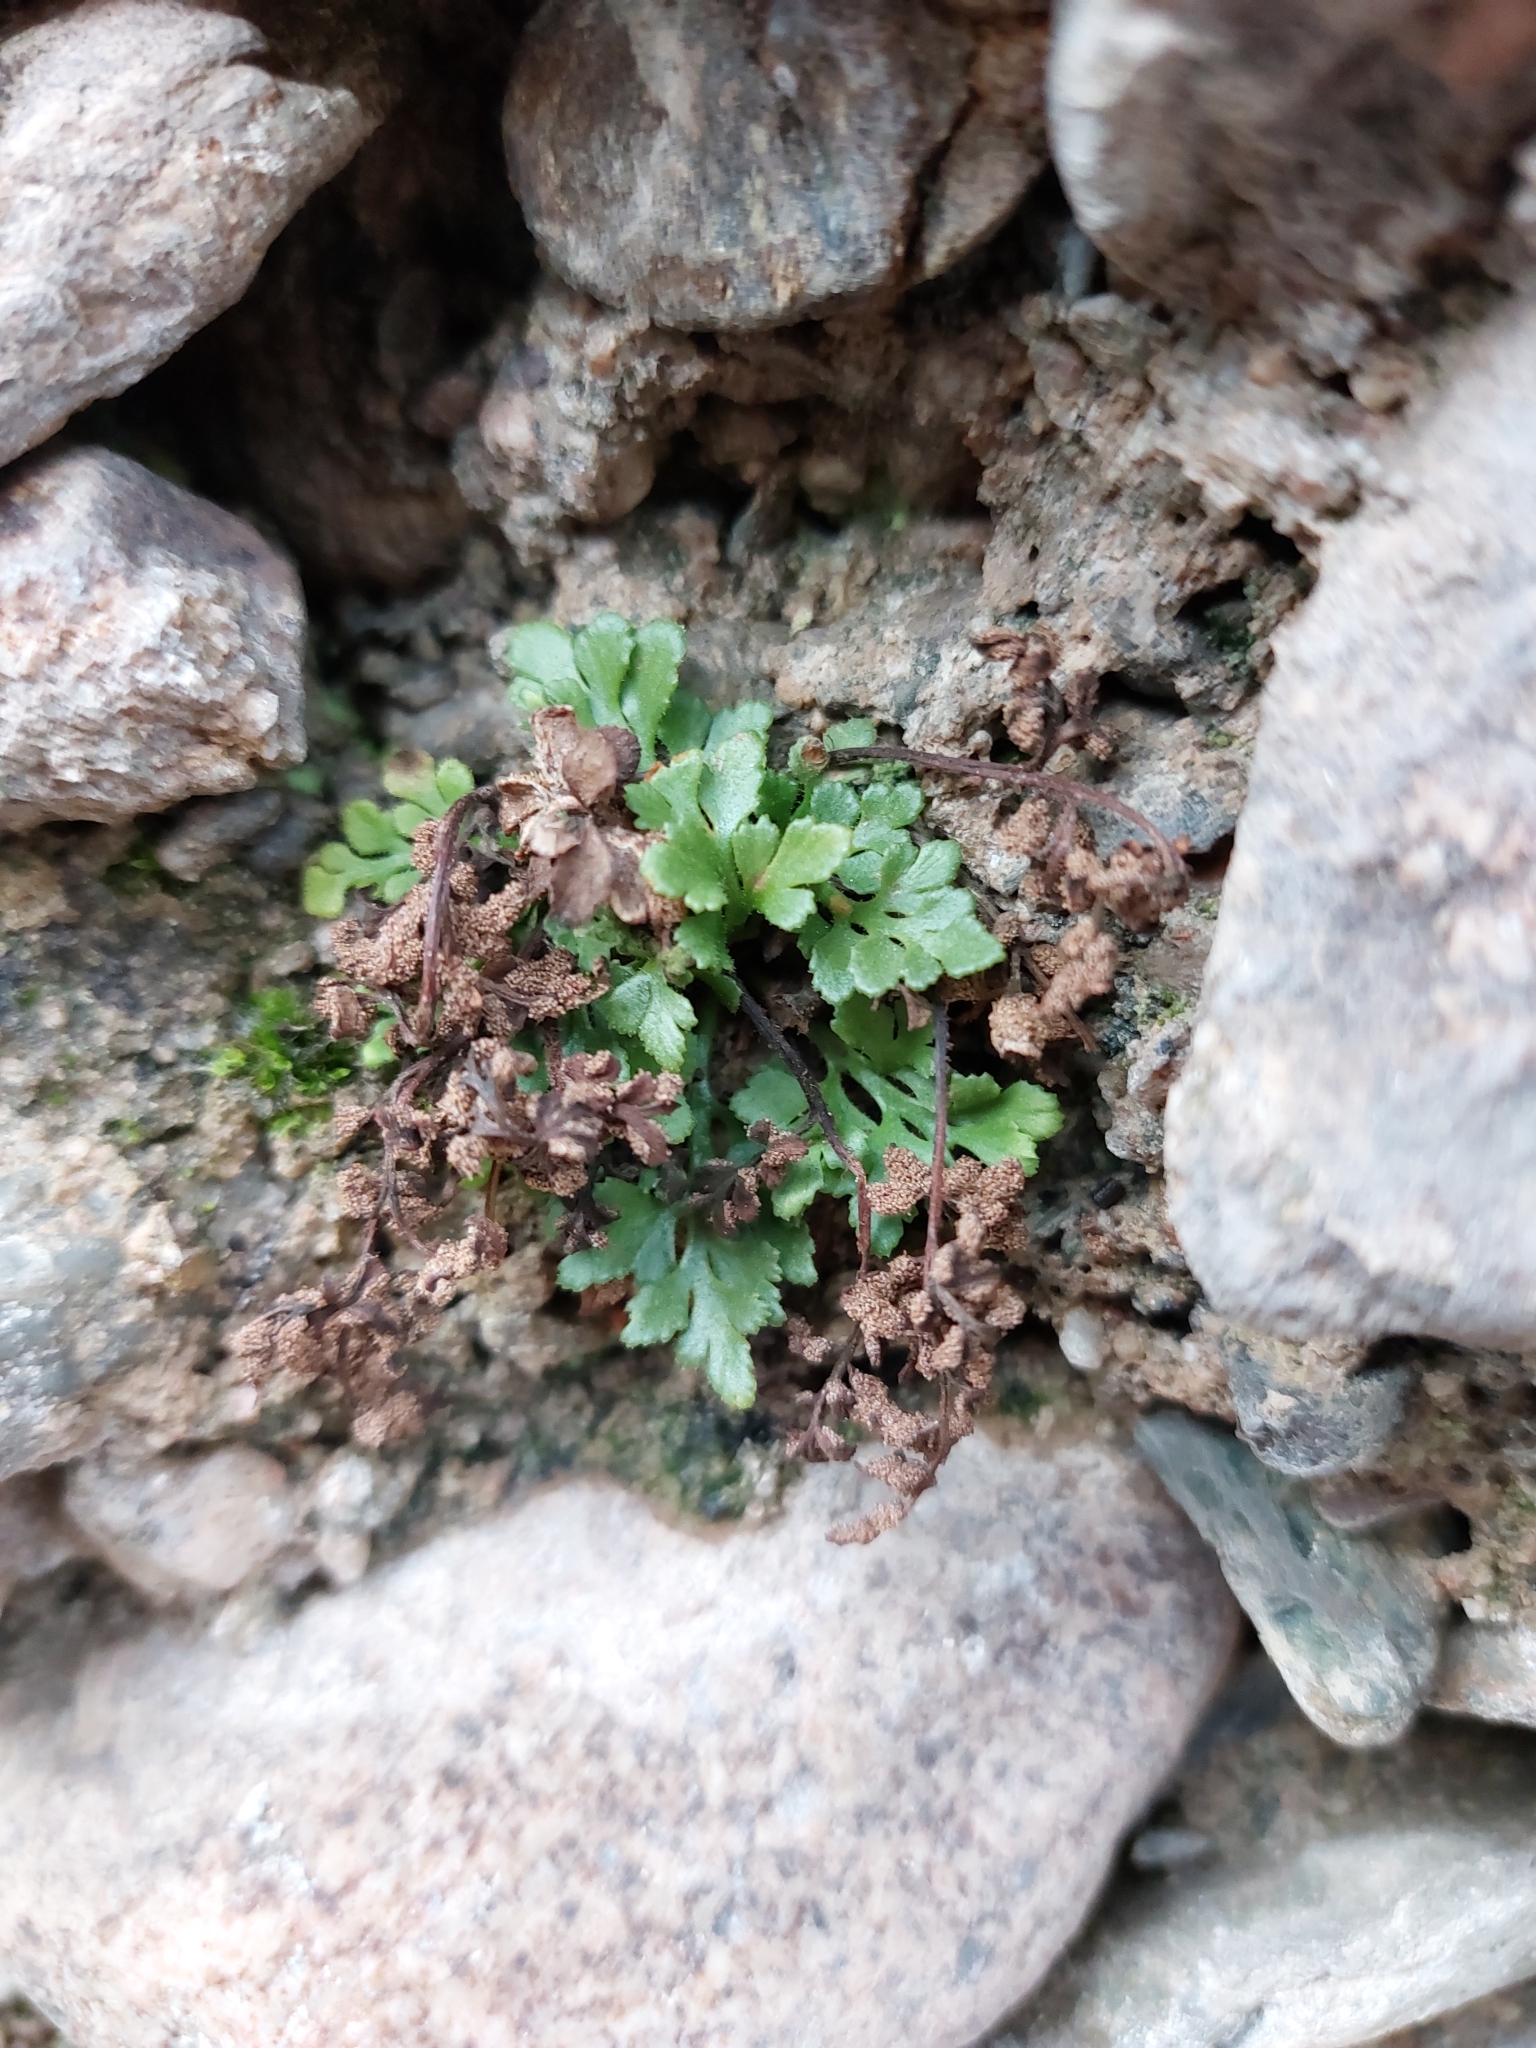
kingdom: Plantae
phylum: Tracheophyta
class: Polypodiopsida
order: Polypodiales
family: Aspleniaceae
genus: Asplenium
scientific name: Asplenium ruta-muraria
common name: Wall-rue
